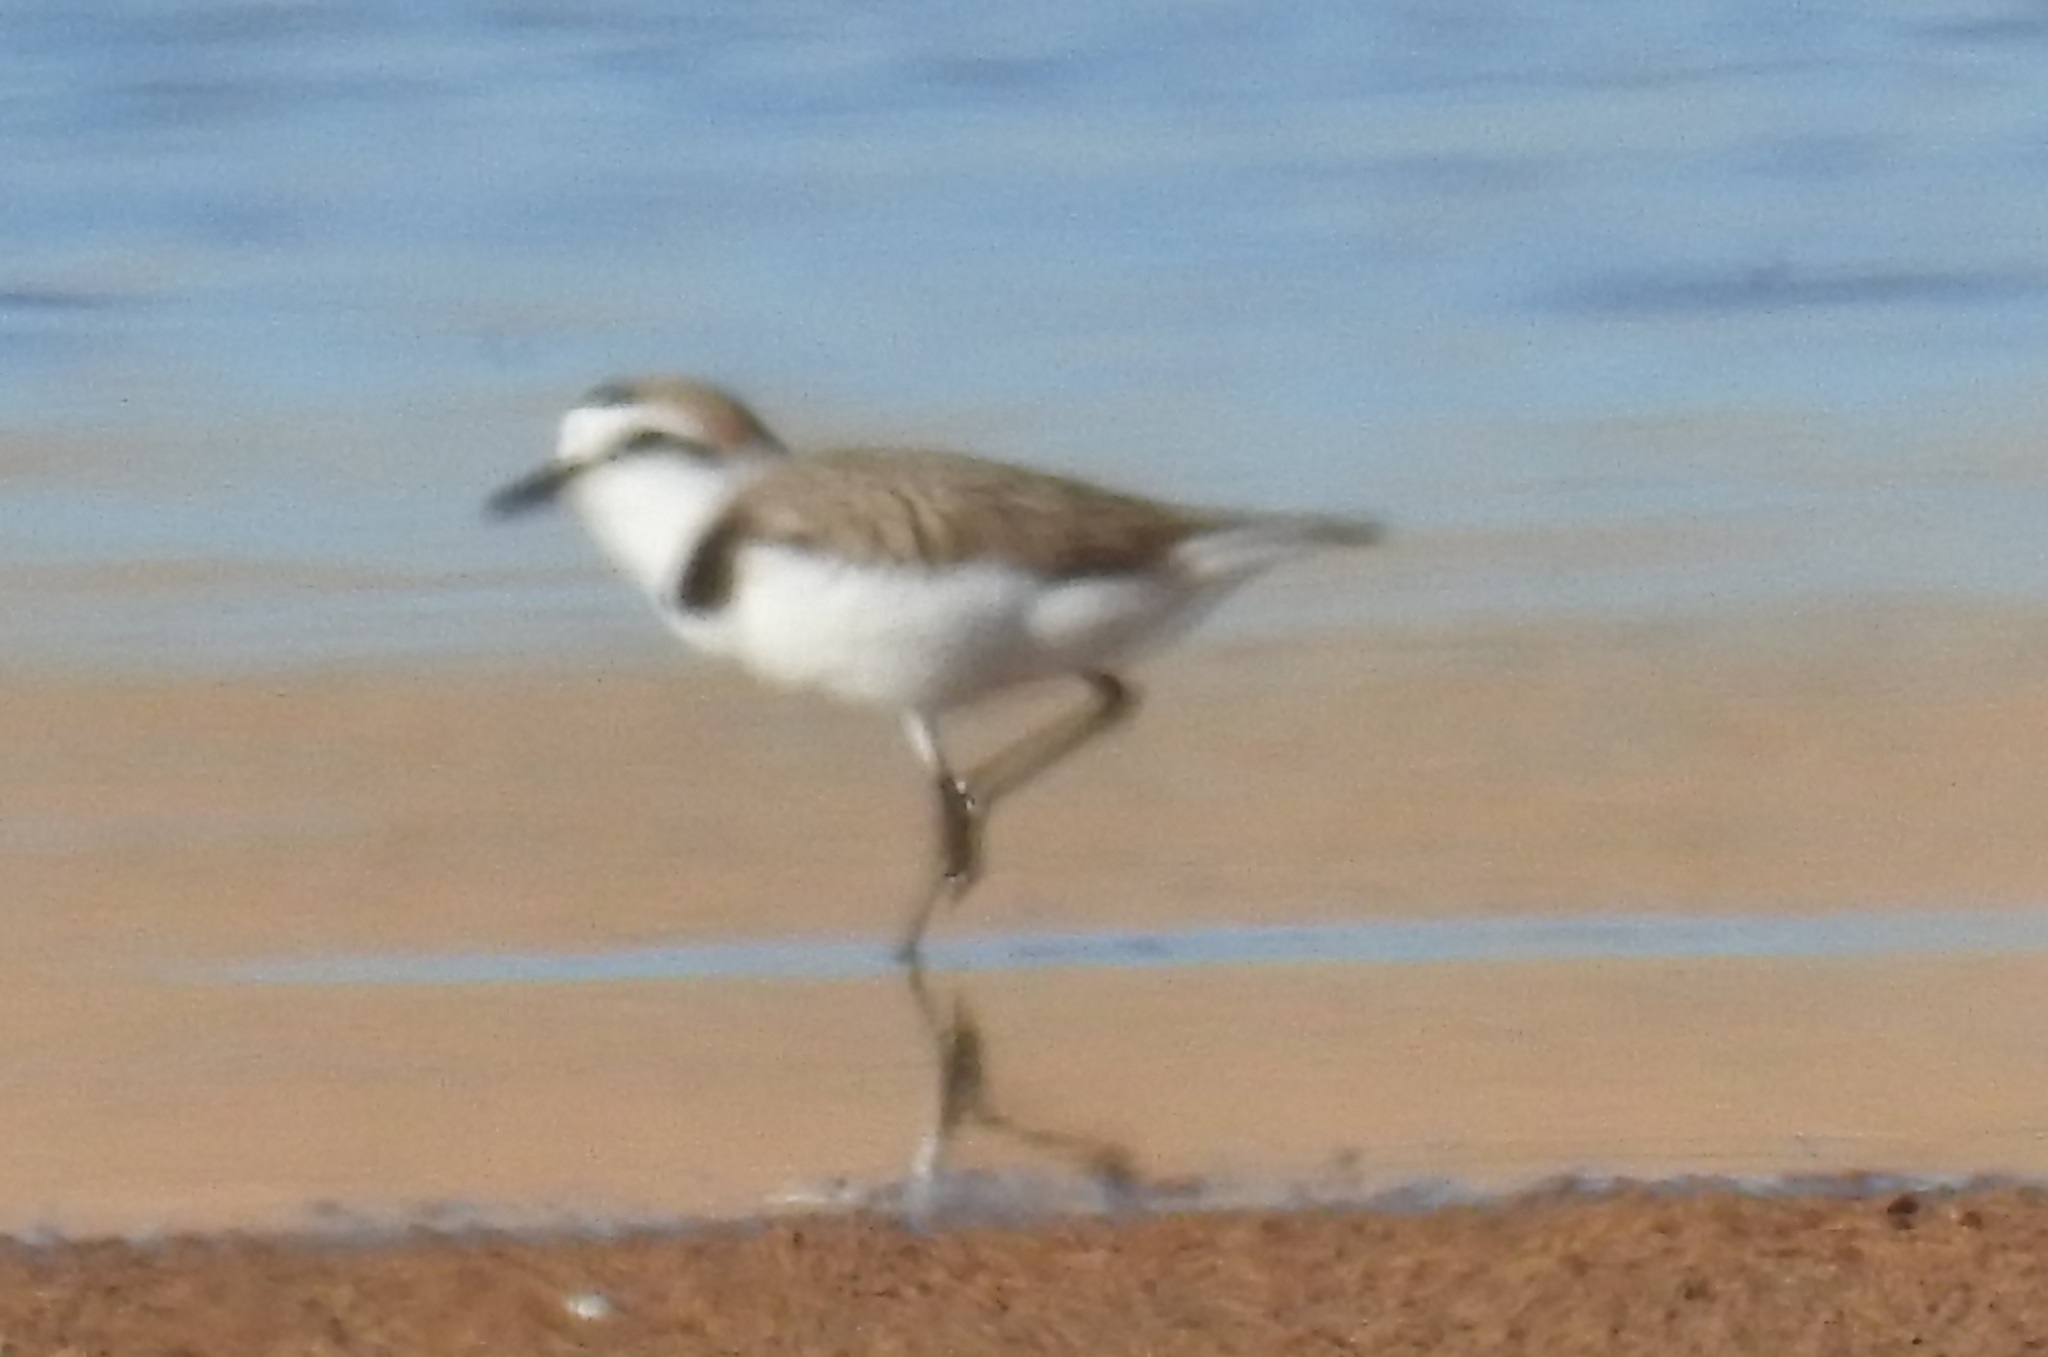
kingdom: Animalia
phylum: Chordata
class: Aves
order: Charadriiformes
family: Charadriidae
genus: Charadrius
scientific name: Charadrius alexandrinus
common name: Kentish plover
